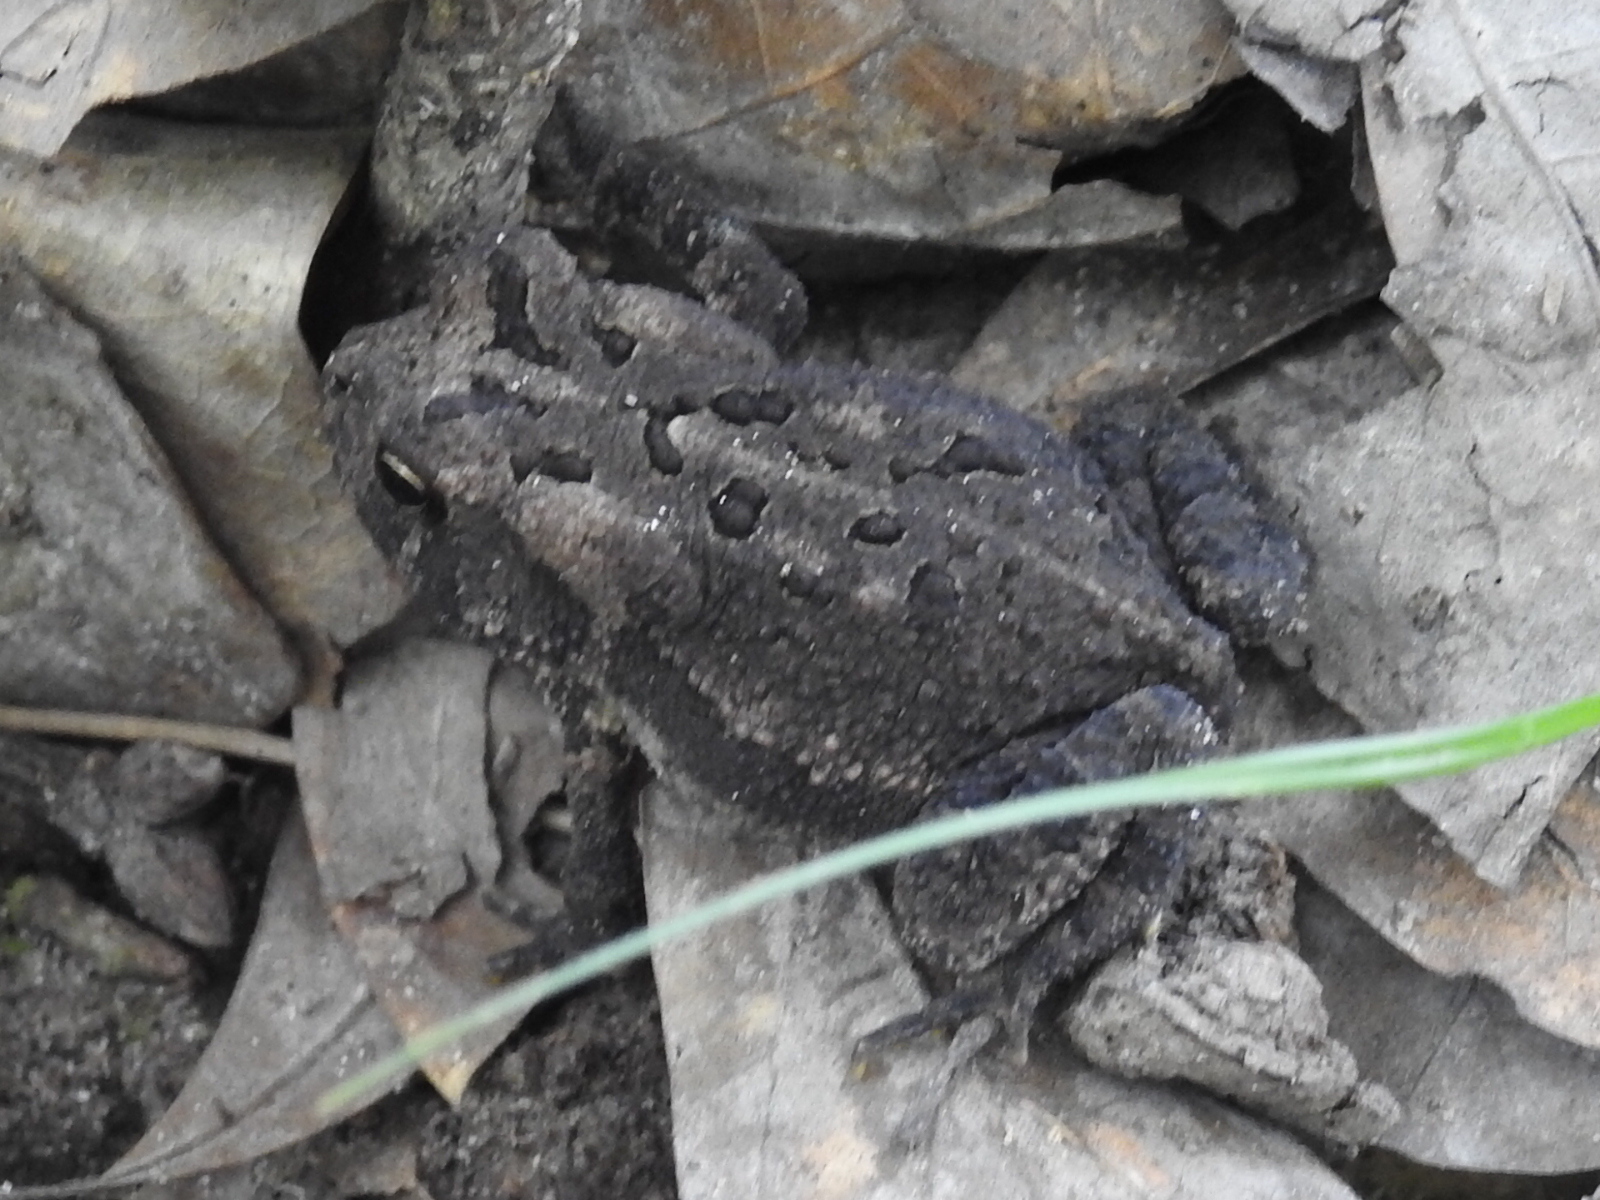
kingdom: Animalia
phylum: Chordata
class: Amphibia
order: Anura
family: Bufonidae
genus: Incilius
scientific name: Incilius nebulifer
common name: Gulf coast toad
